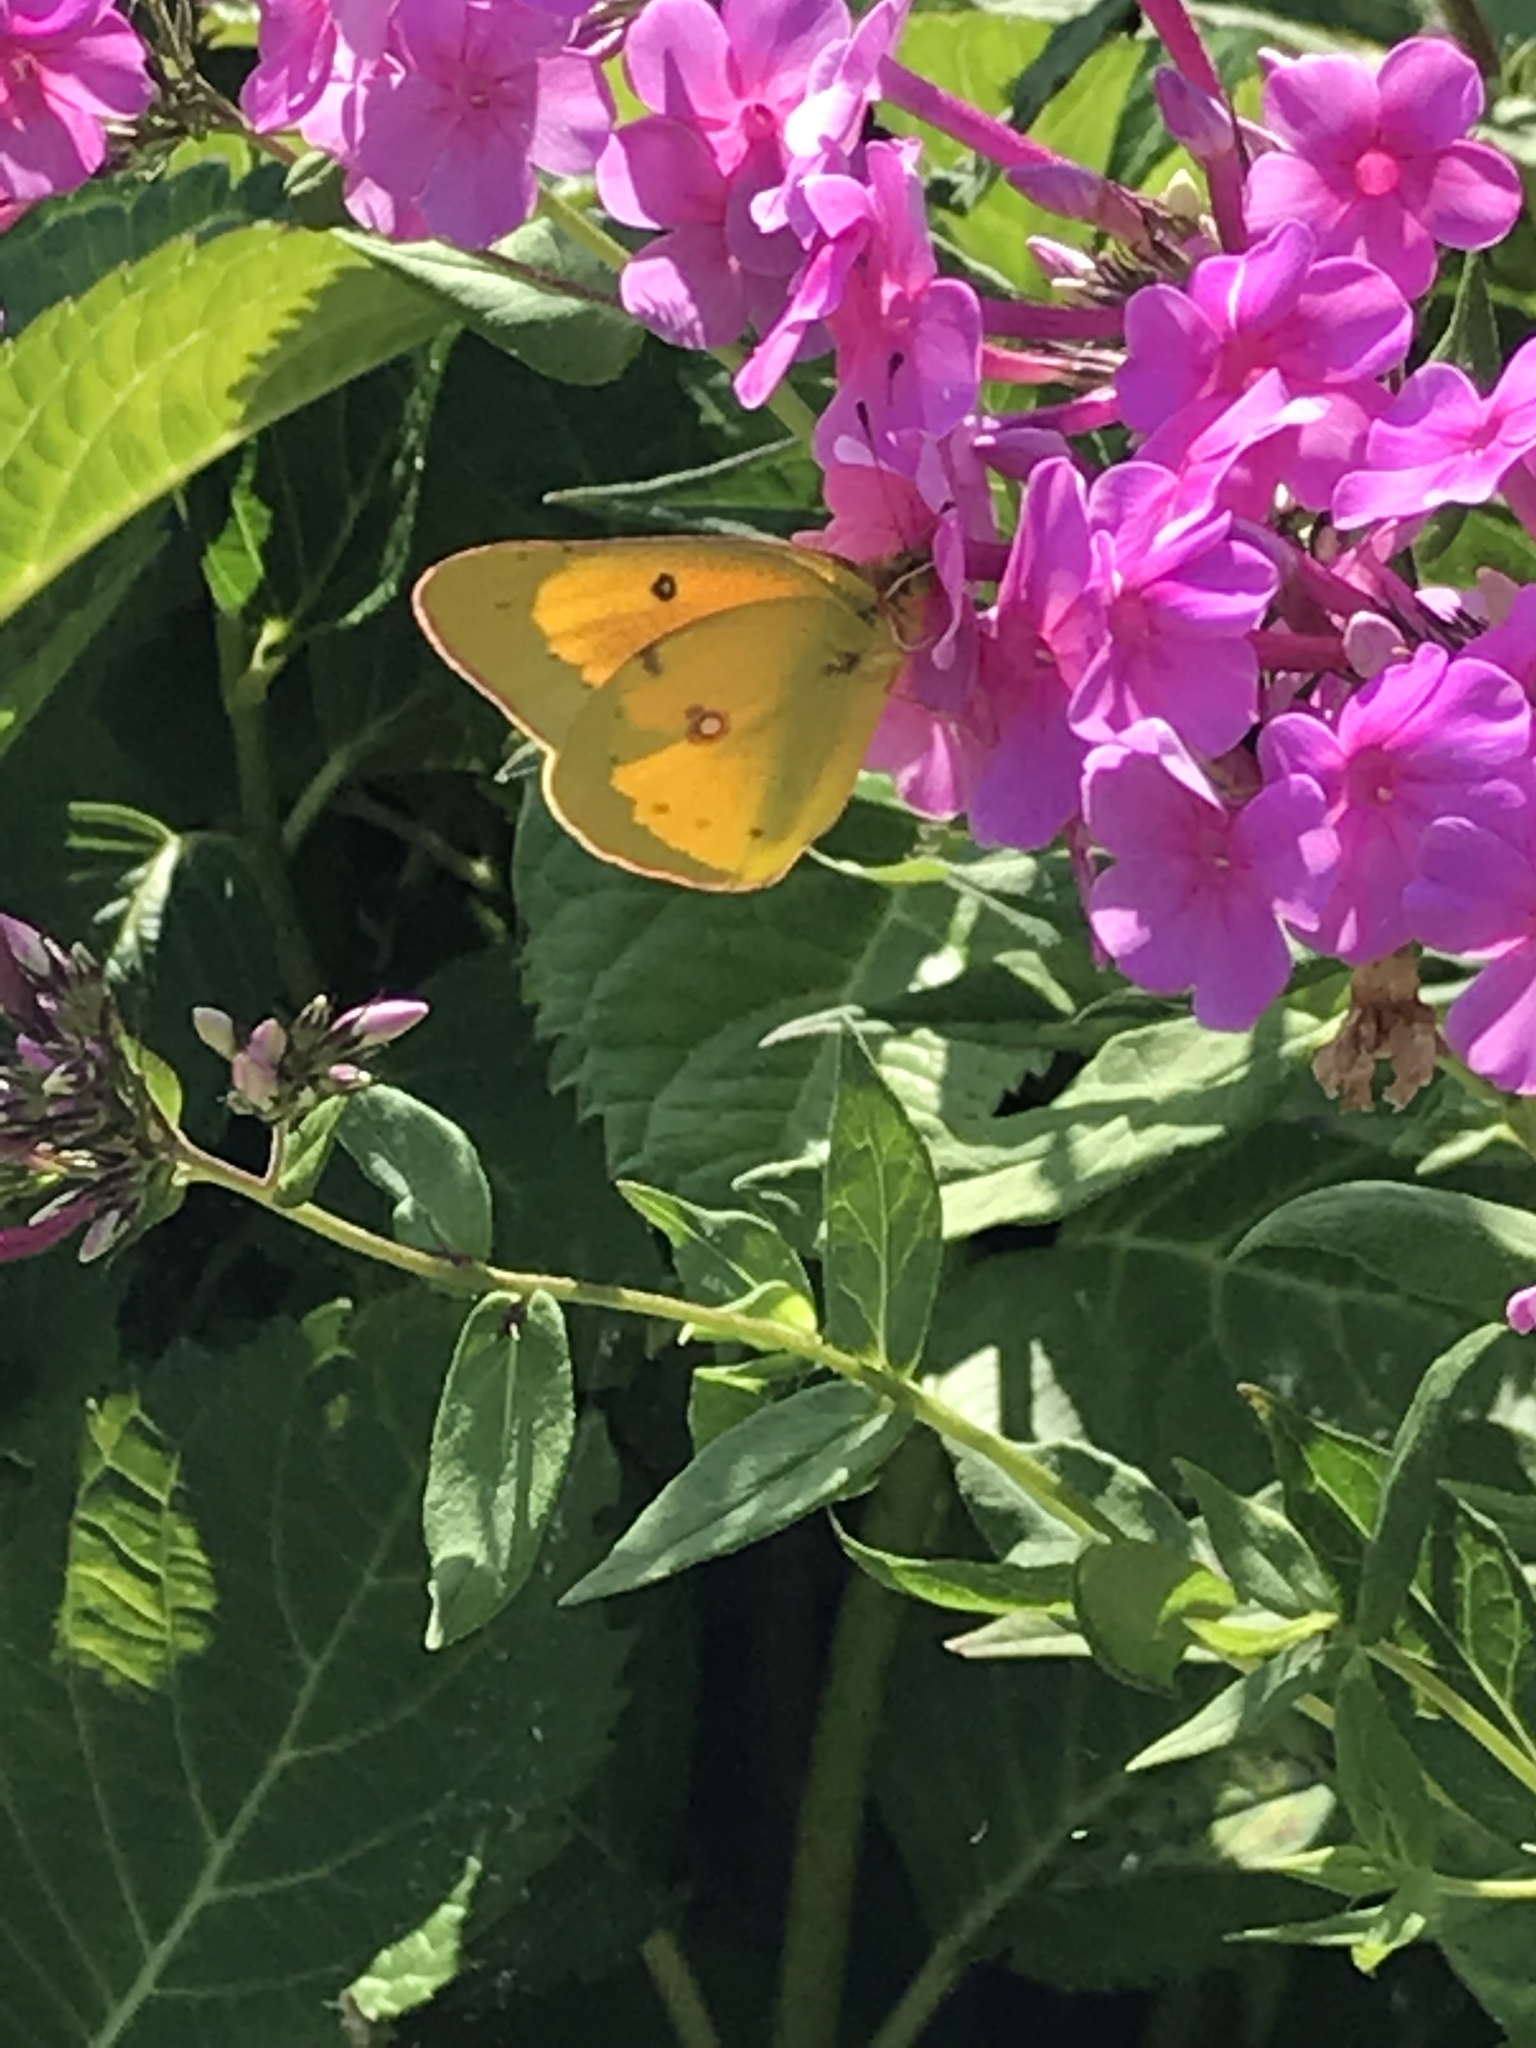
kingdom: Animalia
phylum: Arthropoda
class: Insecta
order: Lepidoptera
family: Pieridae
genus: Colias
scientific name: Colias eurytheme
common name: Alfalfa butterfly
